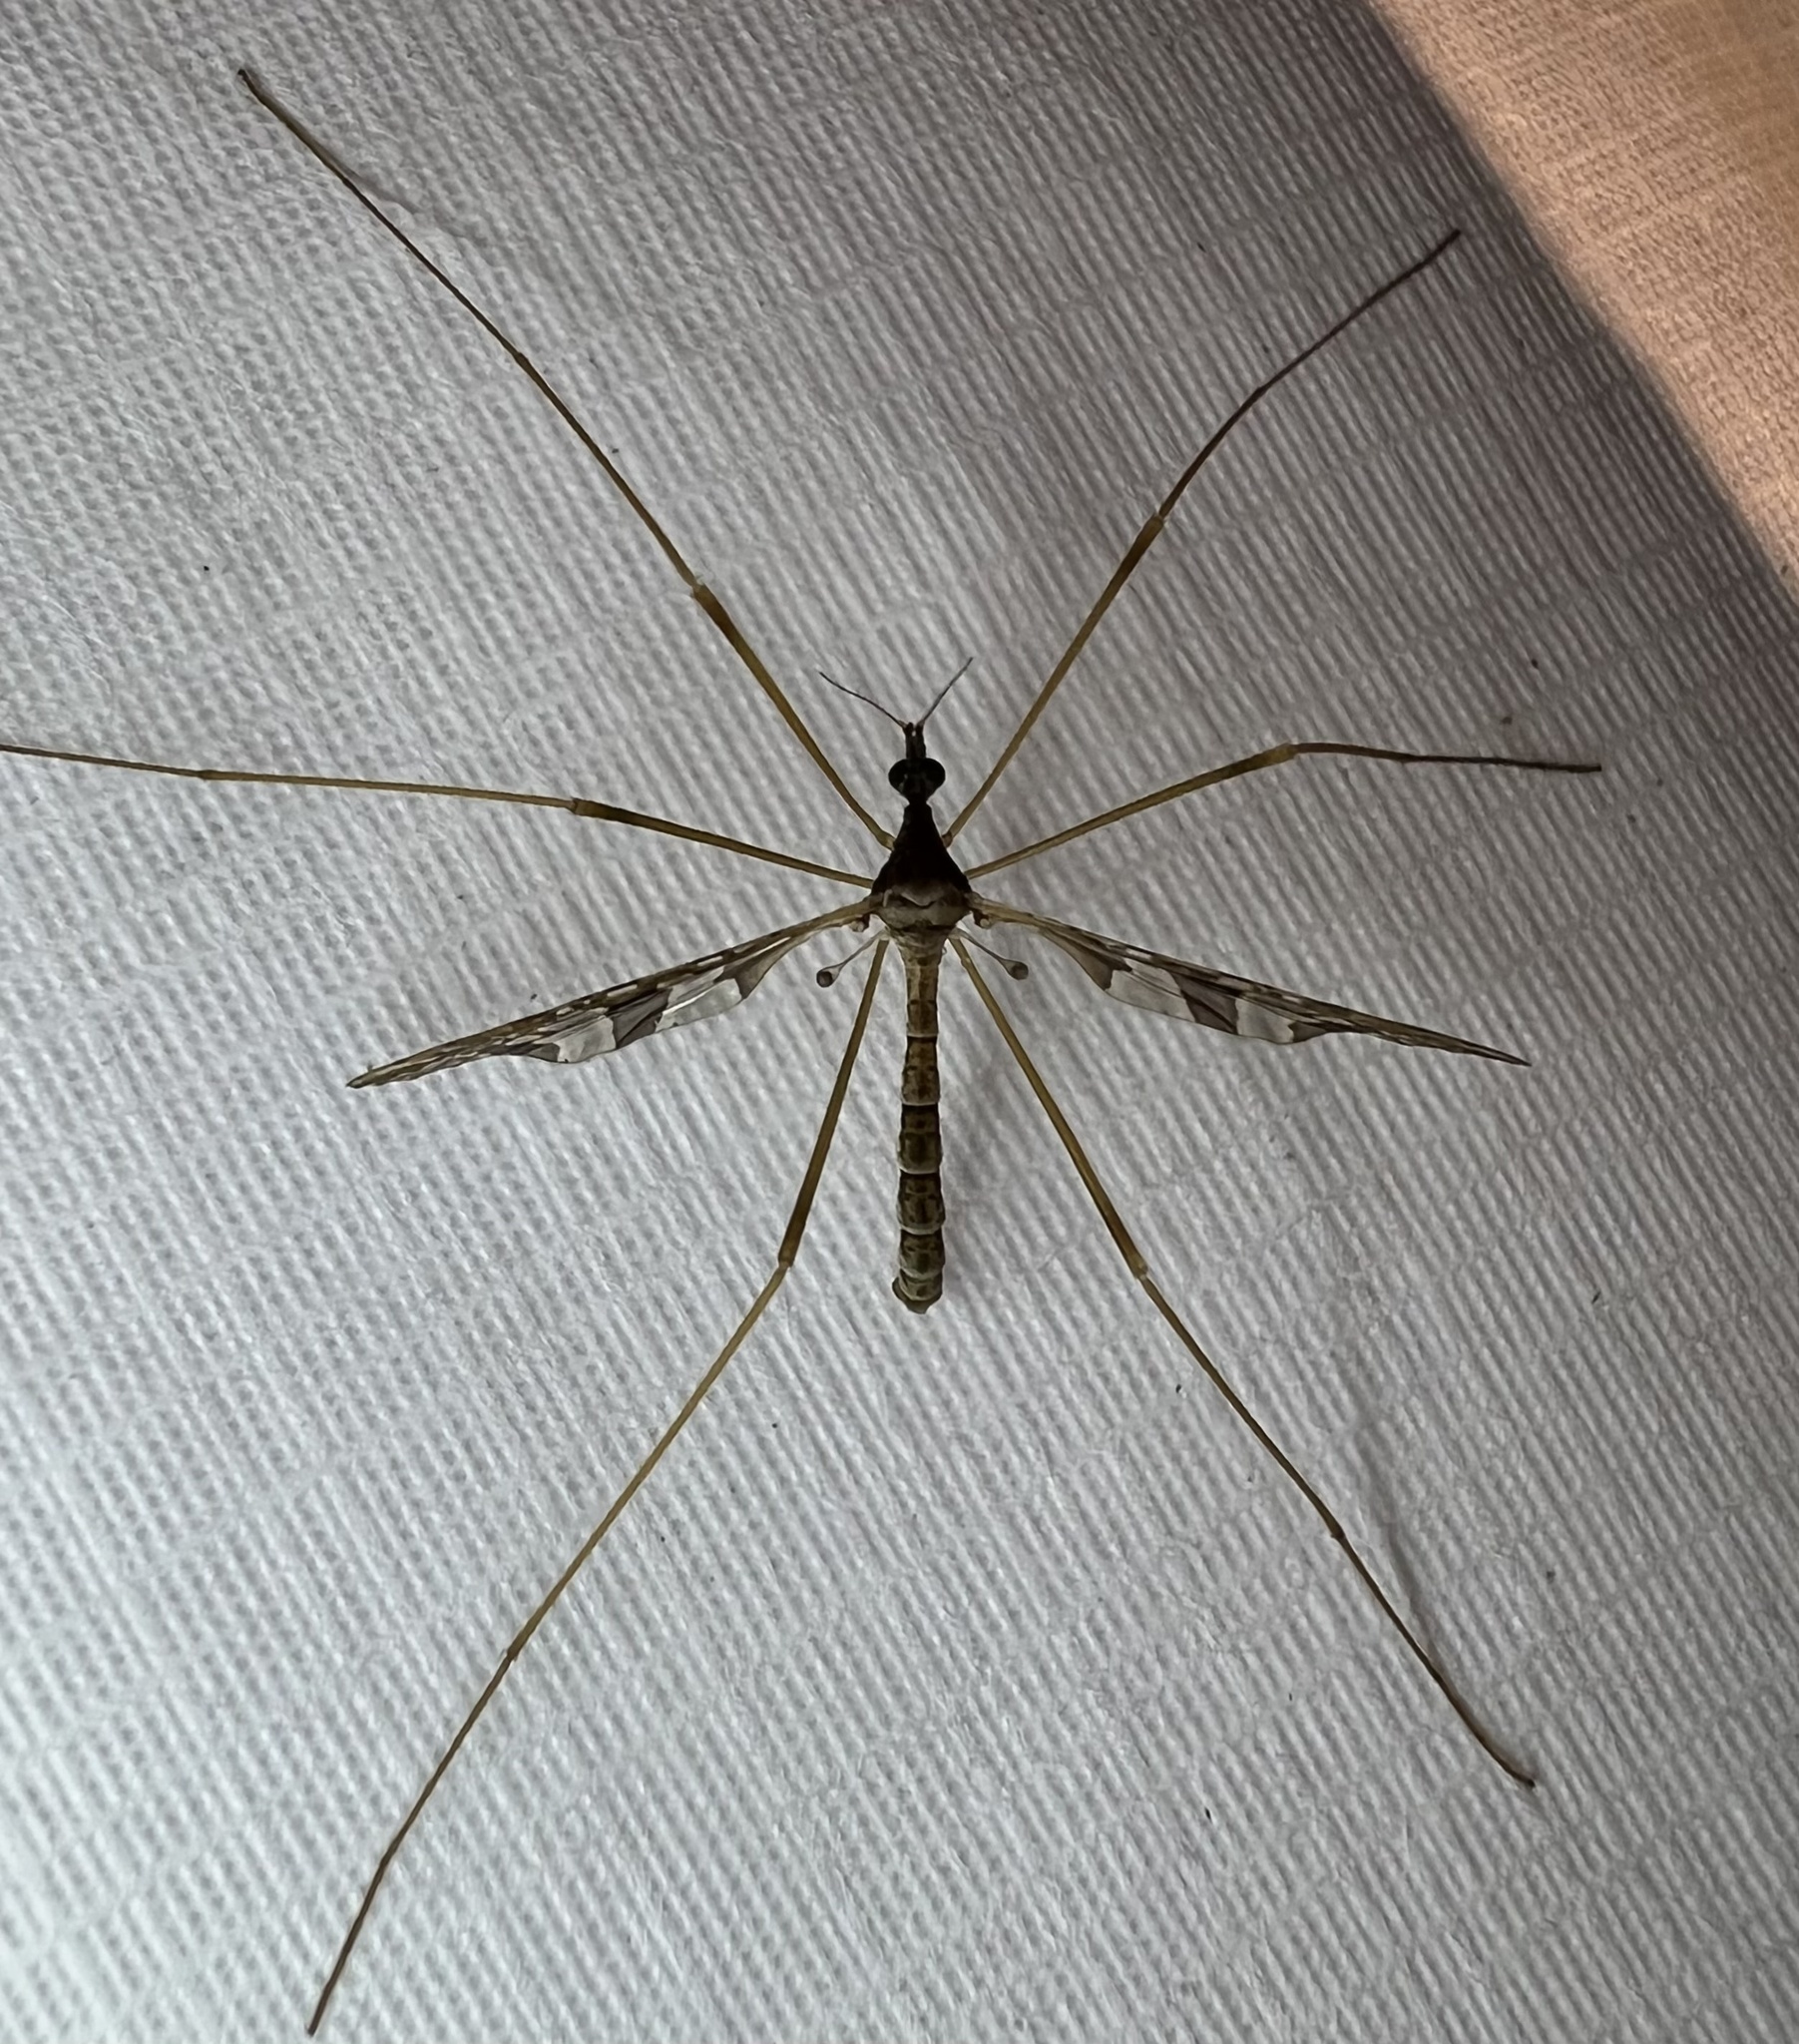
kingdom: Animalia
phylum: Arthropoda
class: Insecta
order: Diptera
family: Limoniidae
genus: Epiphragma
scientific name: Epiphragma solatrix
